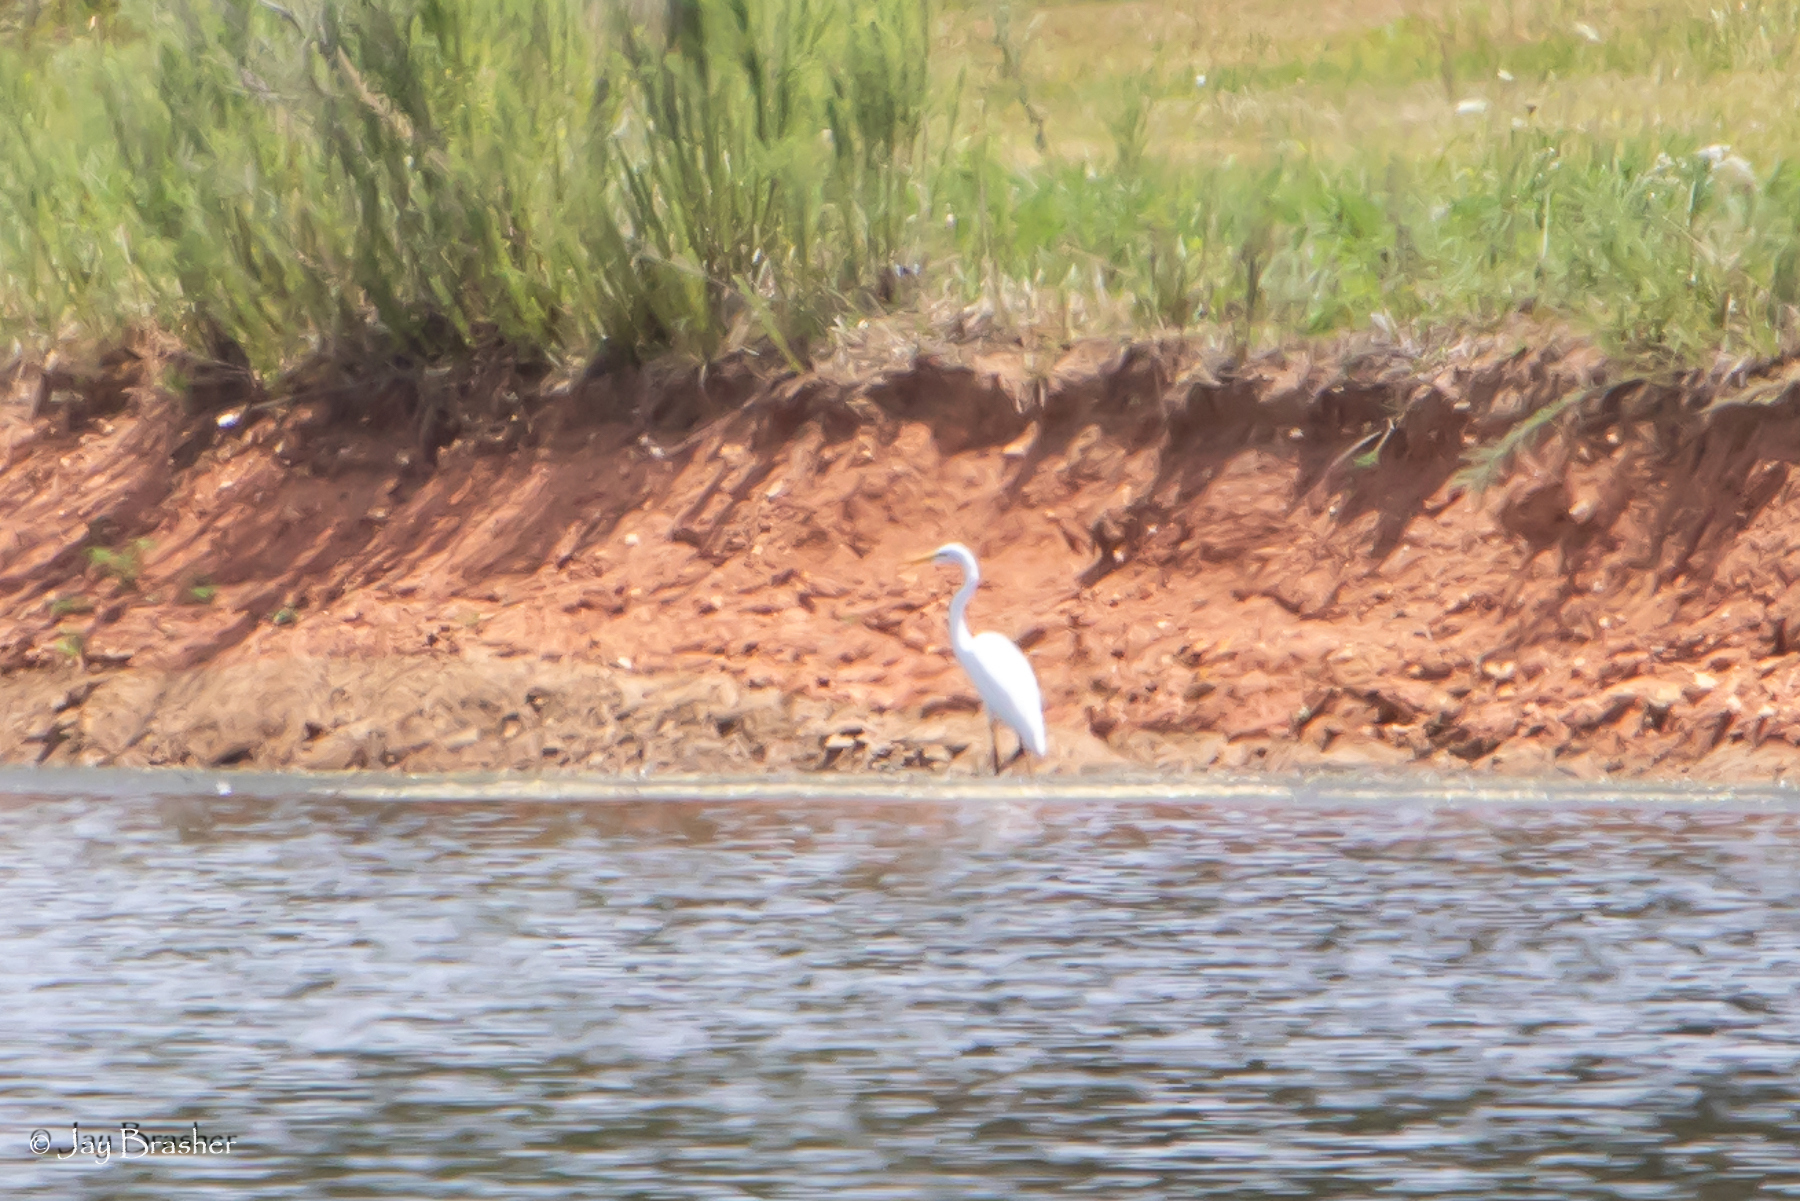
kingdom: Animalia
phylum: Chordata
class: Aves
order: Pelecaniformes
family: Ardeidae
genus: Ardea
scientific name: Ardea alba
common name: Great egret
